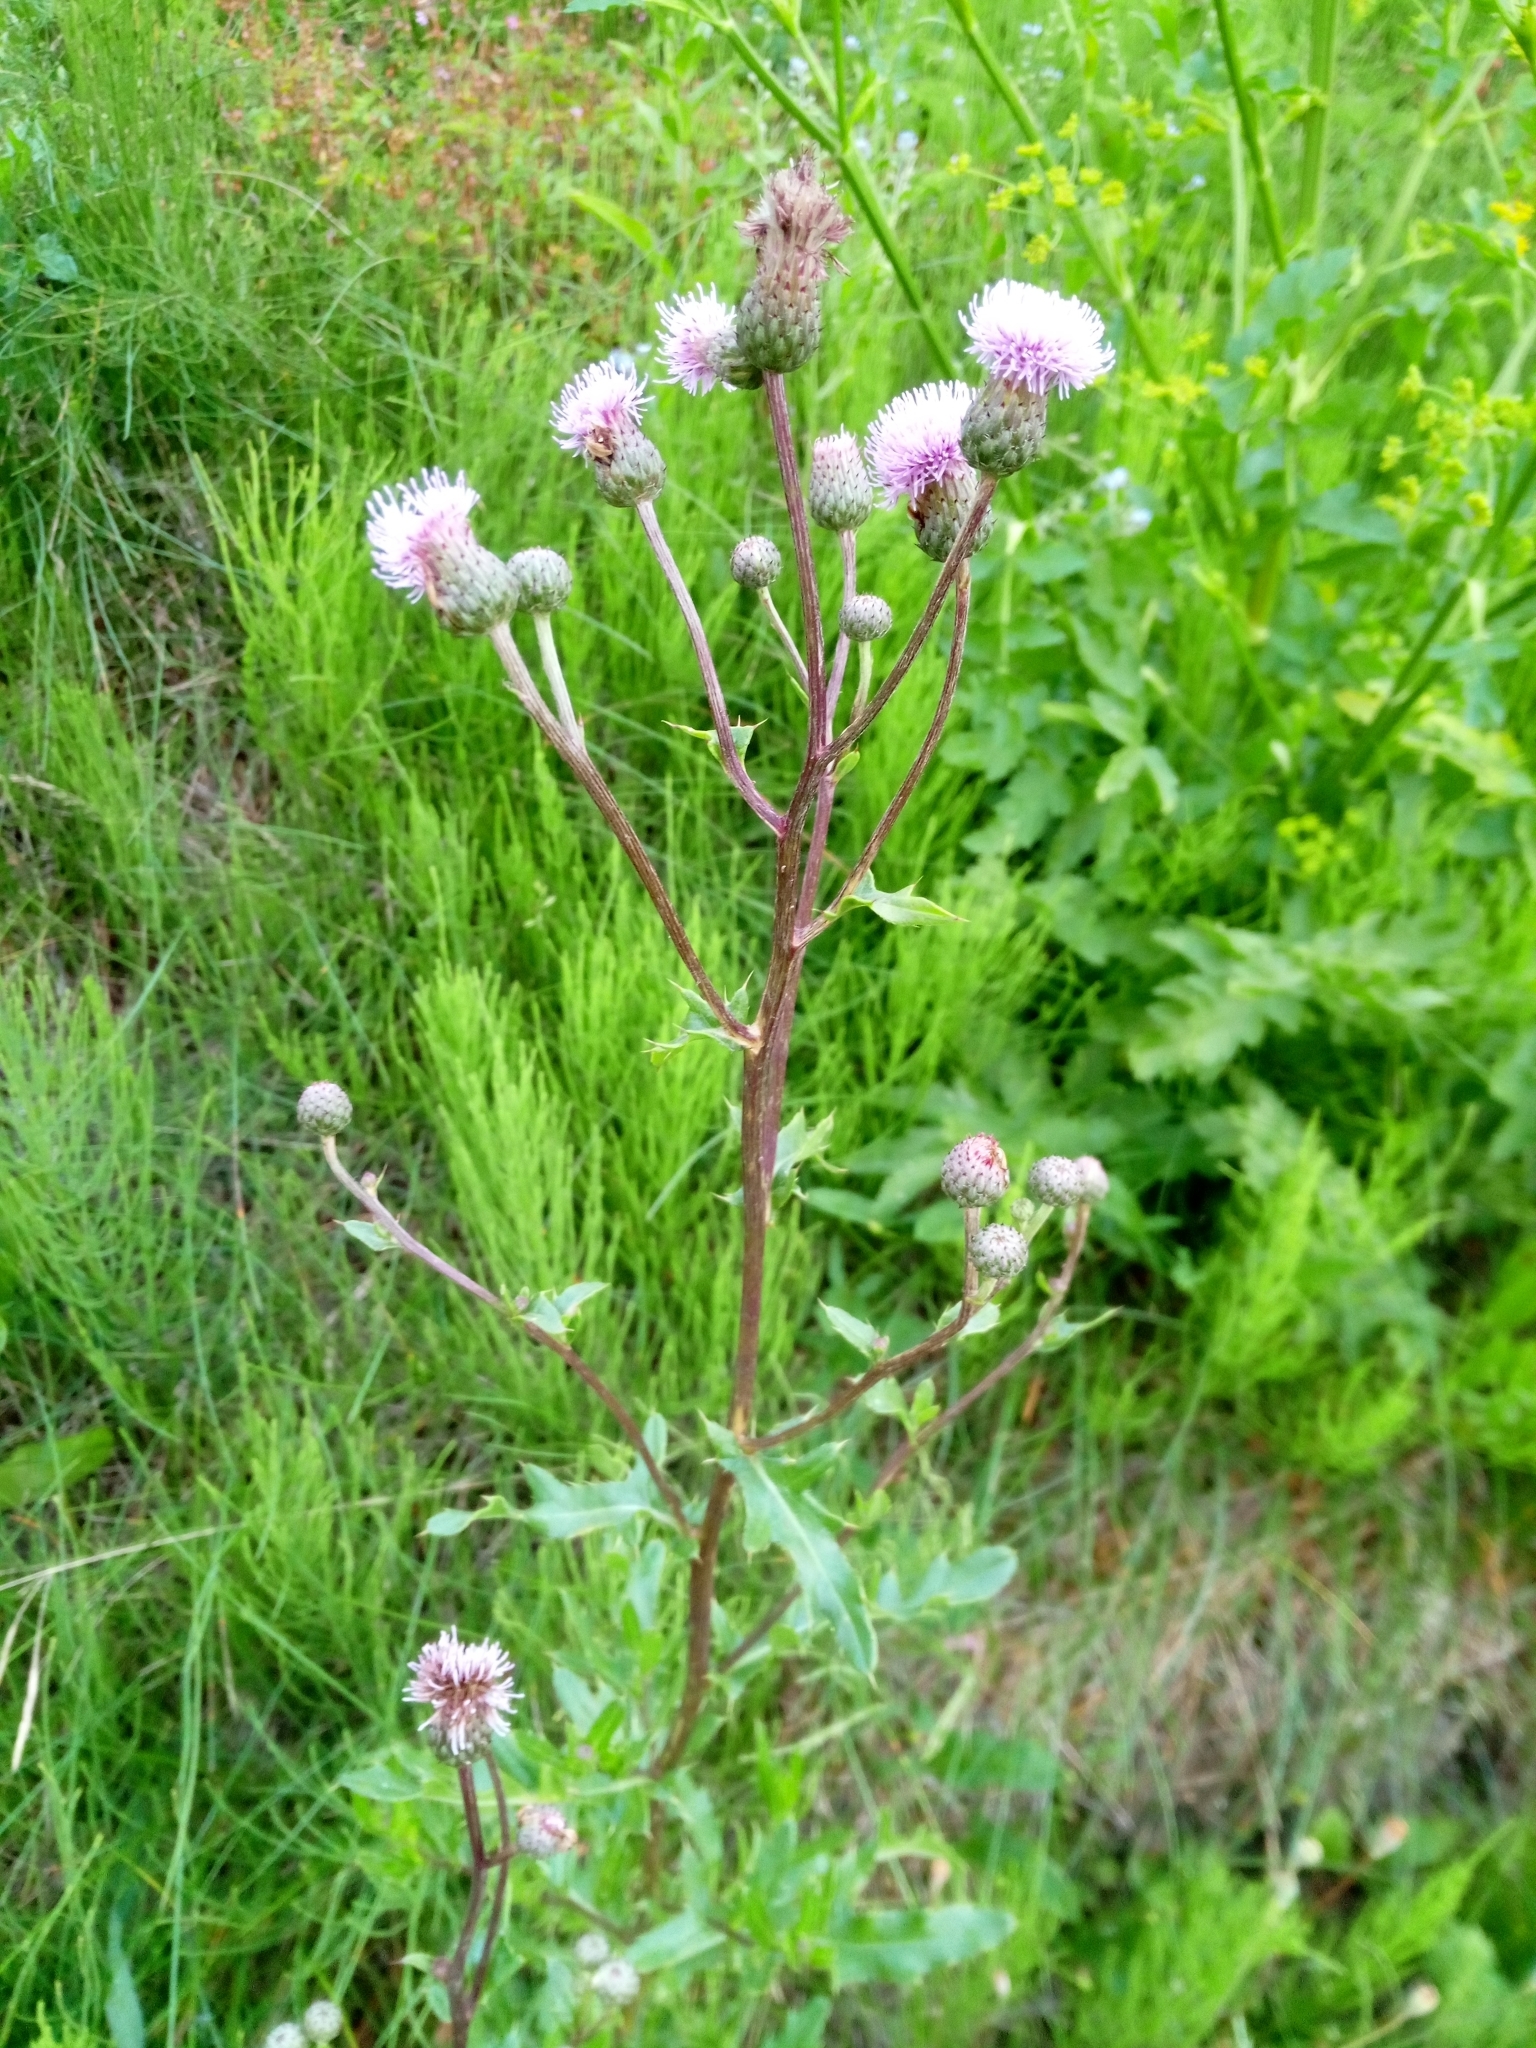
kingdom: Plantae
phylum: Tracheophyta
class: Magnoliopsida
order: Asterales
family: Asteraceae
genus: Cirsium
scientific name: Cirsium arvense
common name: Creeping thistle
